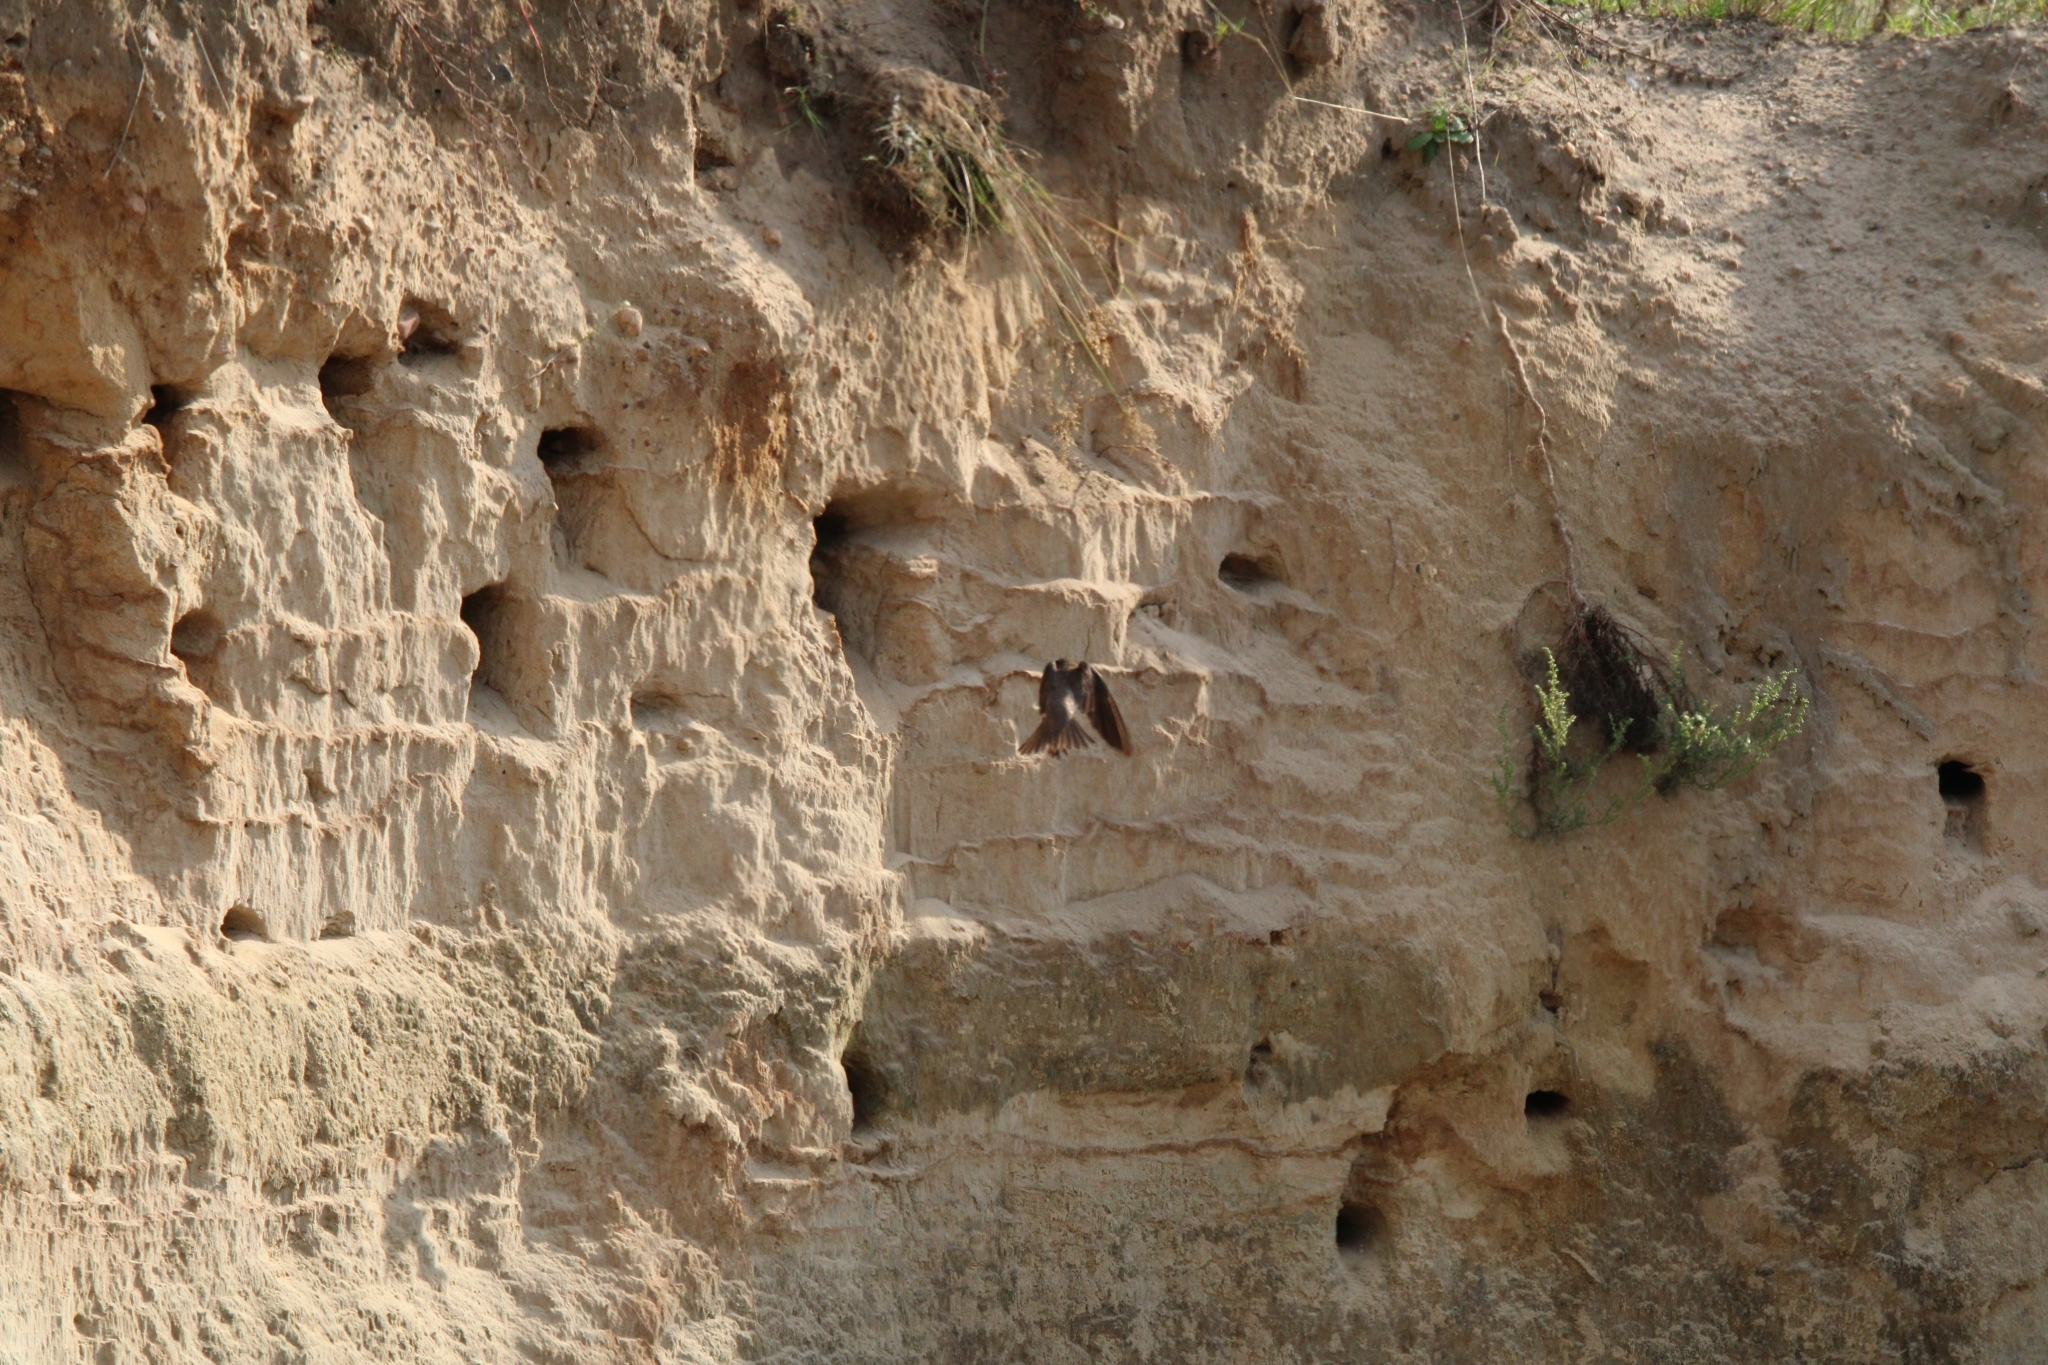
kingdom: Animalia
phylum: Chordata
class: Aves
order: Passeriformes
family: Hirundinidae
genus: Riparia
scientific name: Riparia riparia
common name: Sand martin
